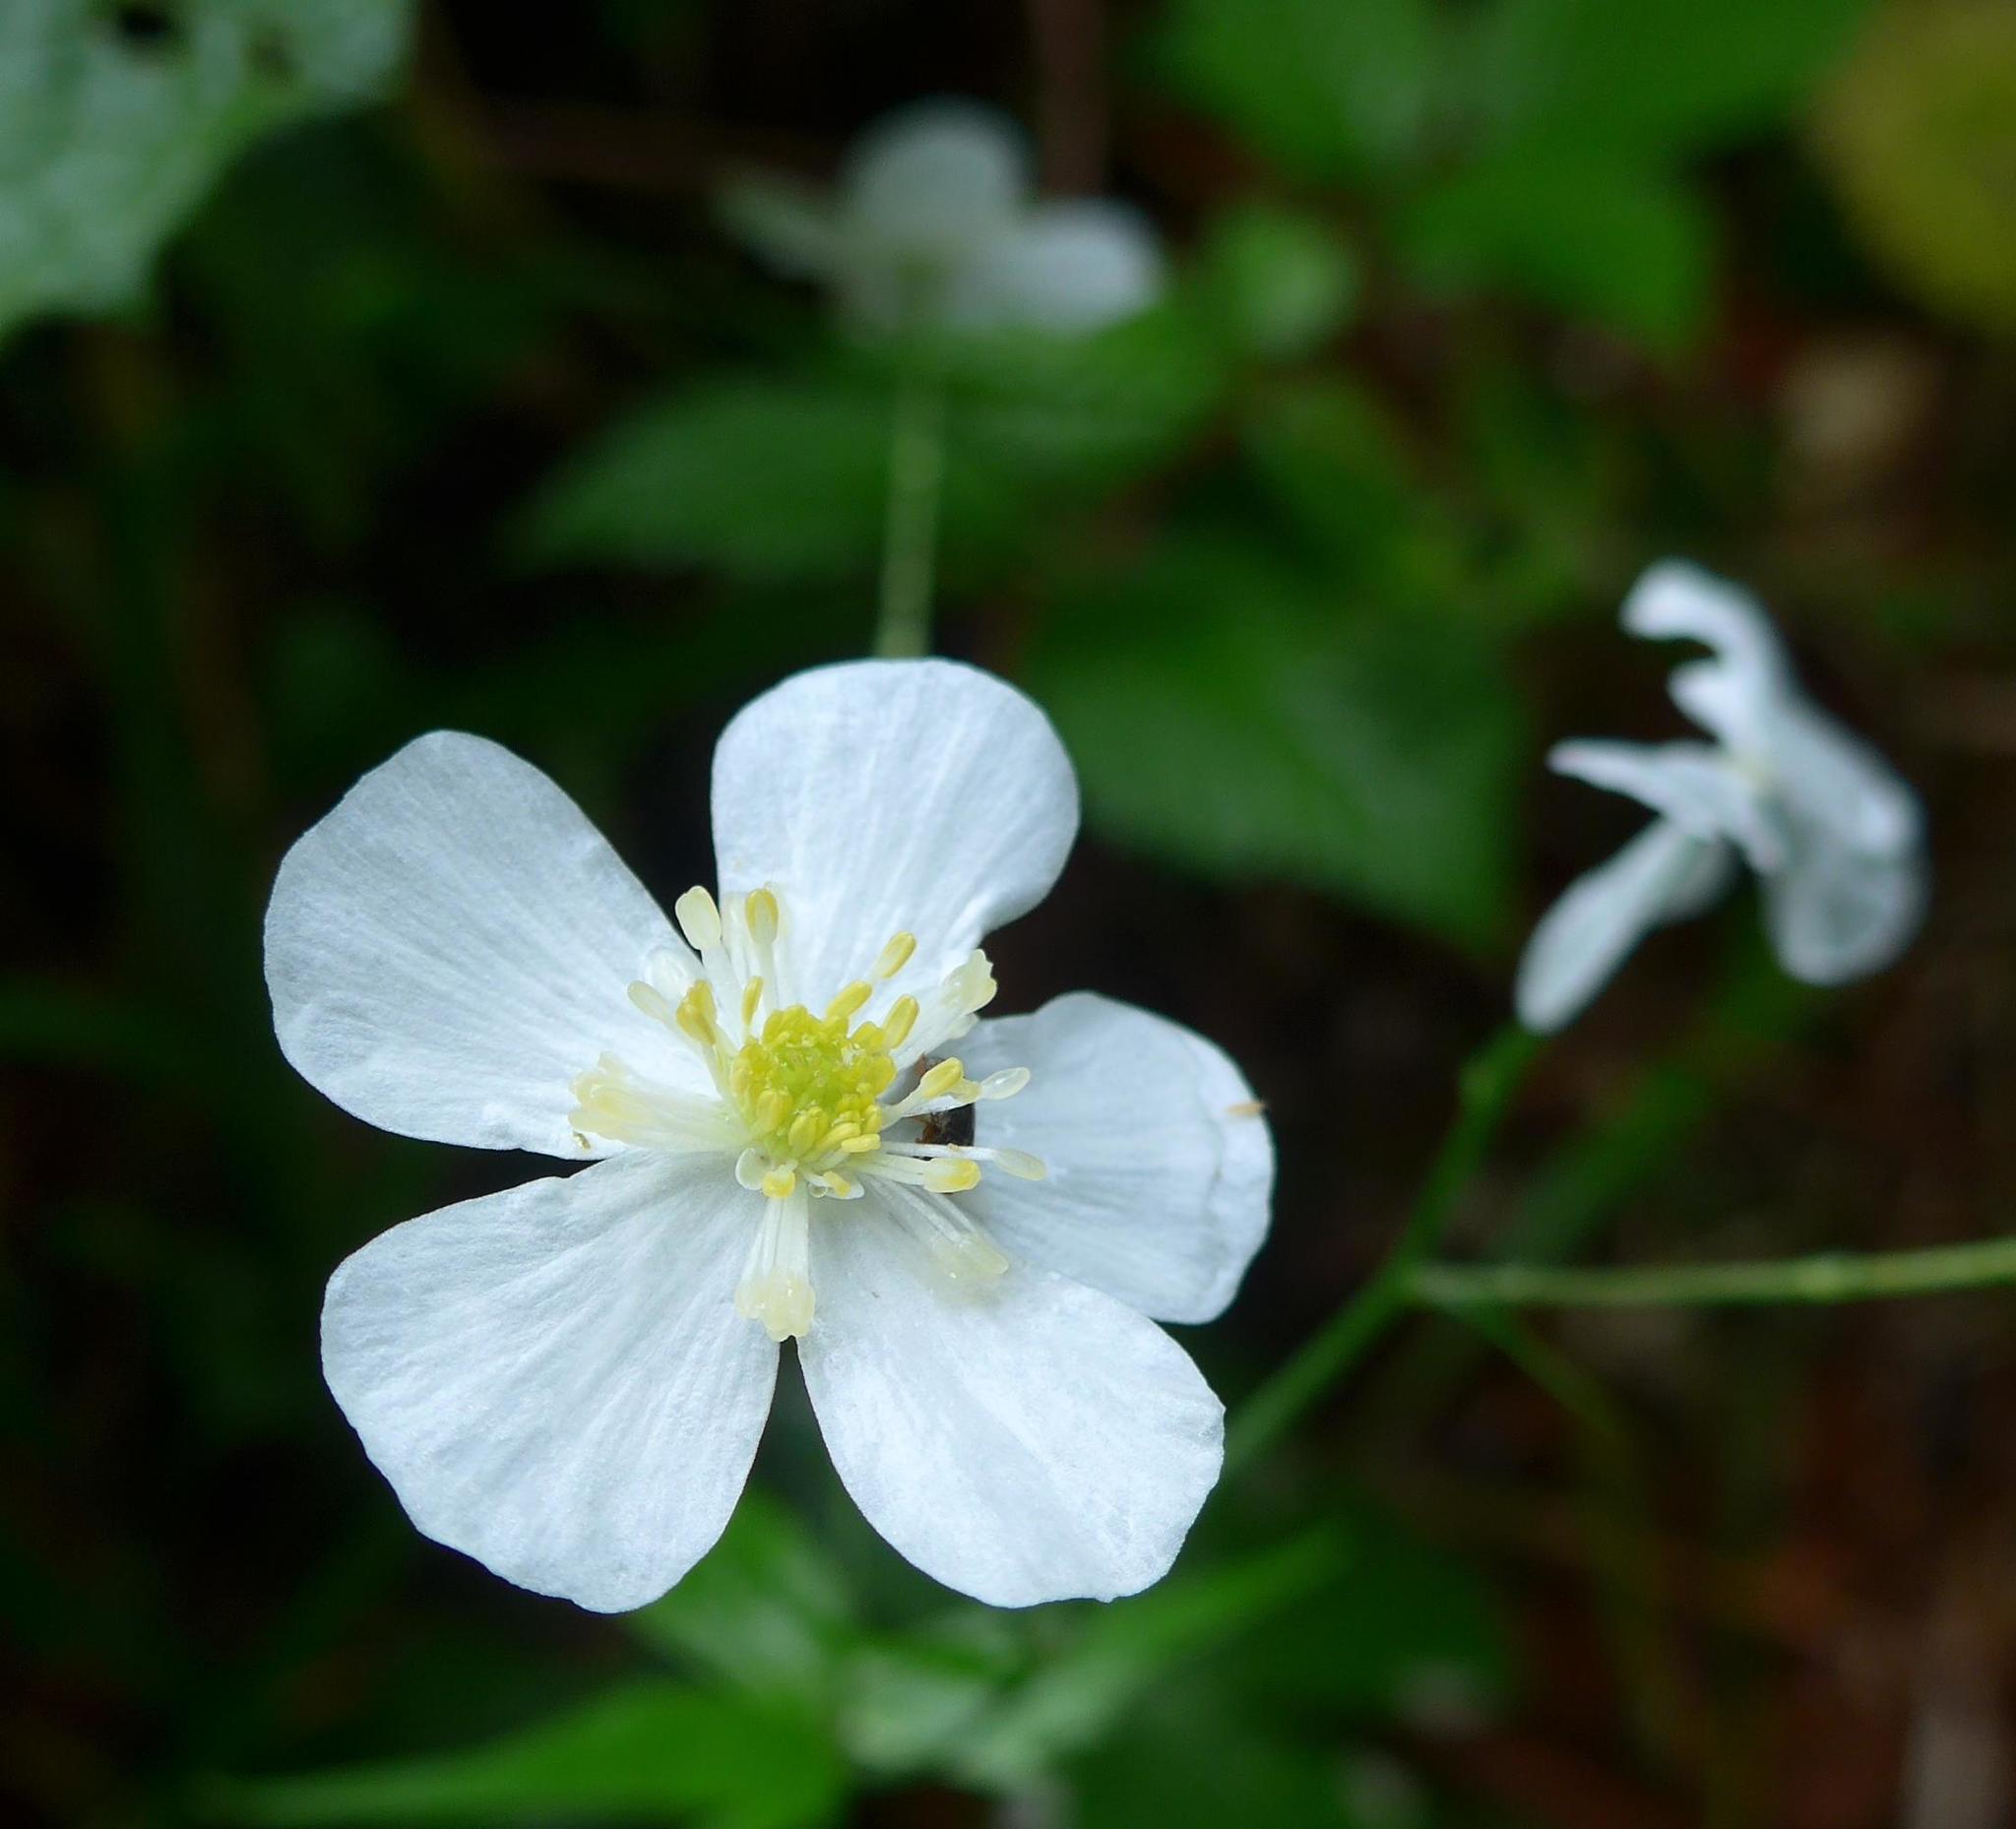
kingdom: Plantae
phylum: Tracheophyta
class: Magnoliopsida
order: Ranunculales
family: Ranunculaceae
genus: Ranunculus
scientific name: Ranunculus platanifolius
